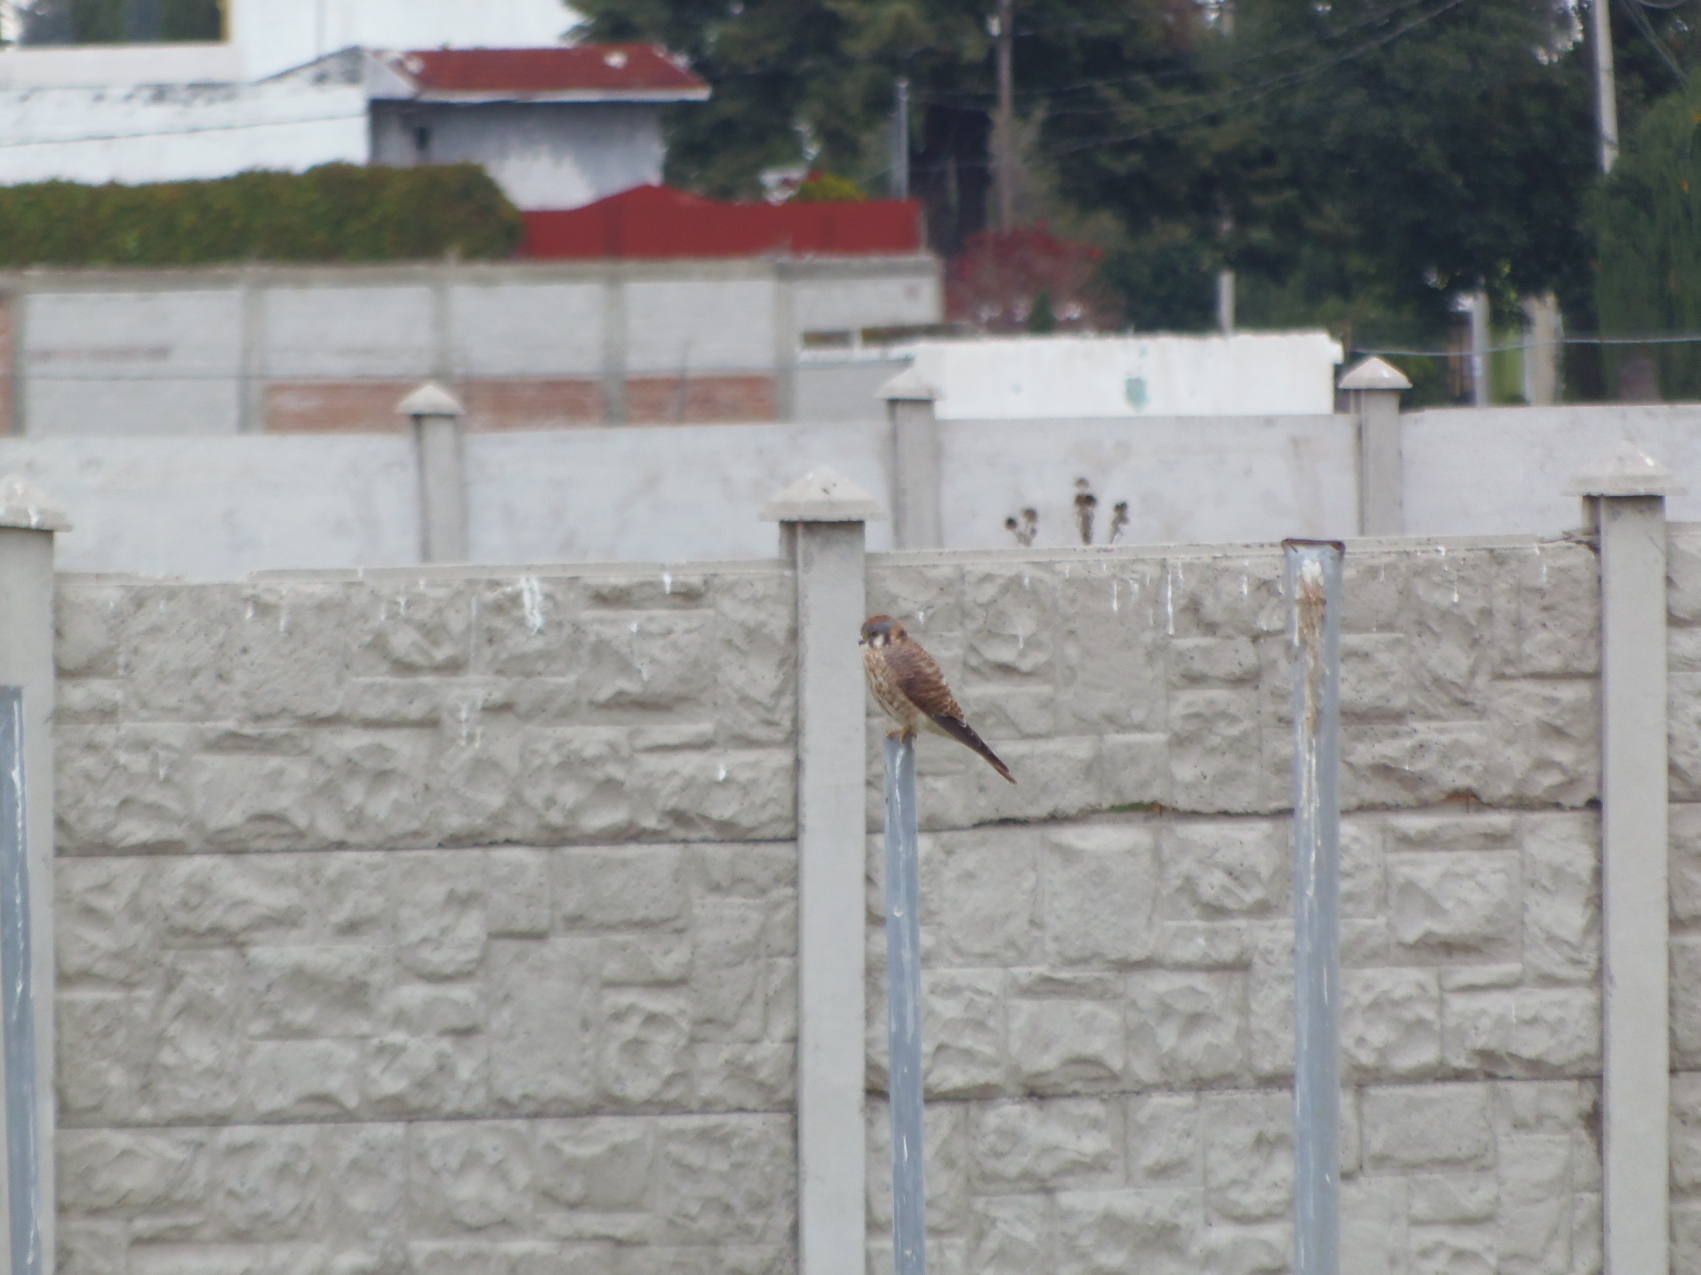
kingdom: Animalia
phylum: Chordata
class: Aves
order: Falconiformes
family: Falconidae
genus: Falco
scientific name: Falco sparverius
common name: American kestrel
